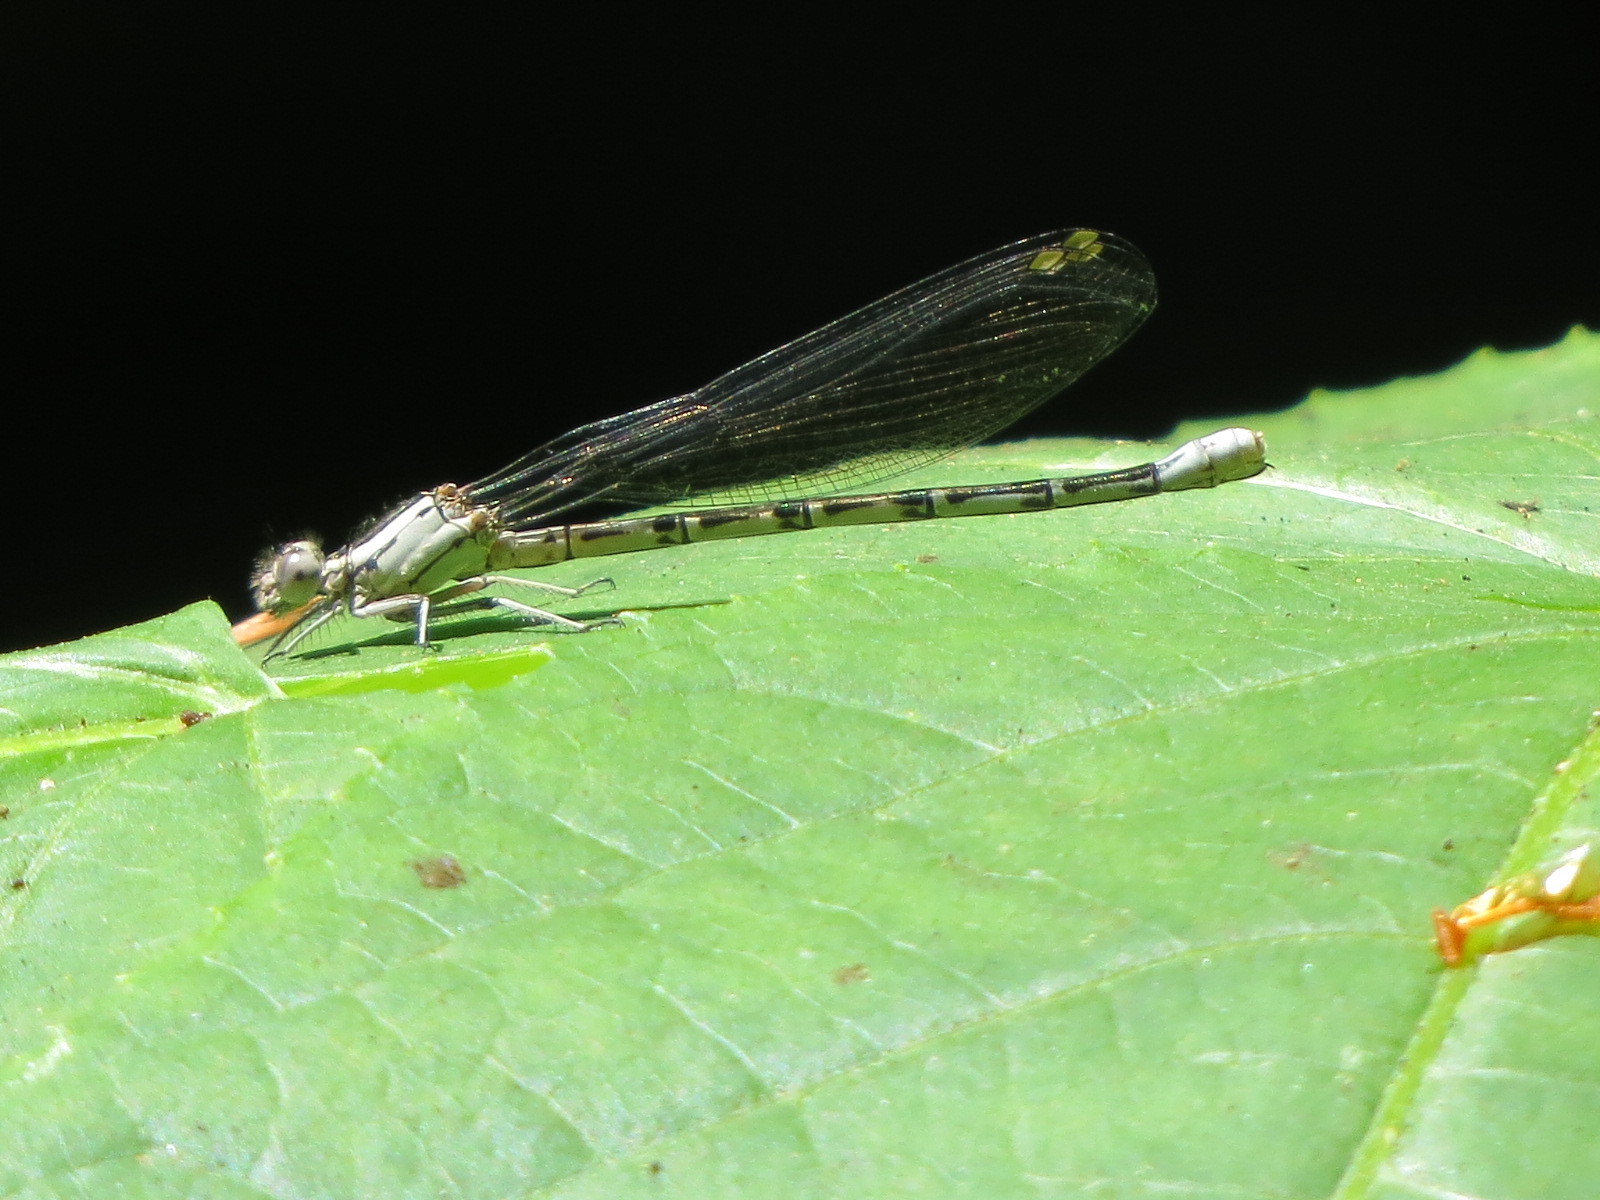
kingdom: Animalia
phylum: Arthropoda
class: Insecta
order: Odonata
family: Coenagrionidae
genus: Argia
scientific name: Argia vivida
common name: Vivid dancer
